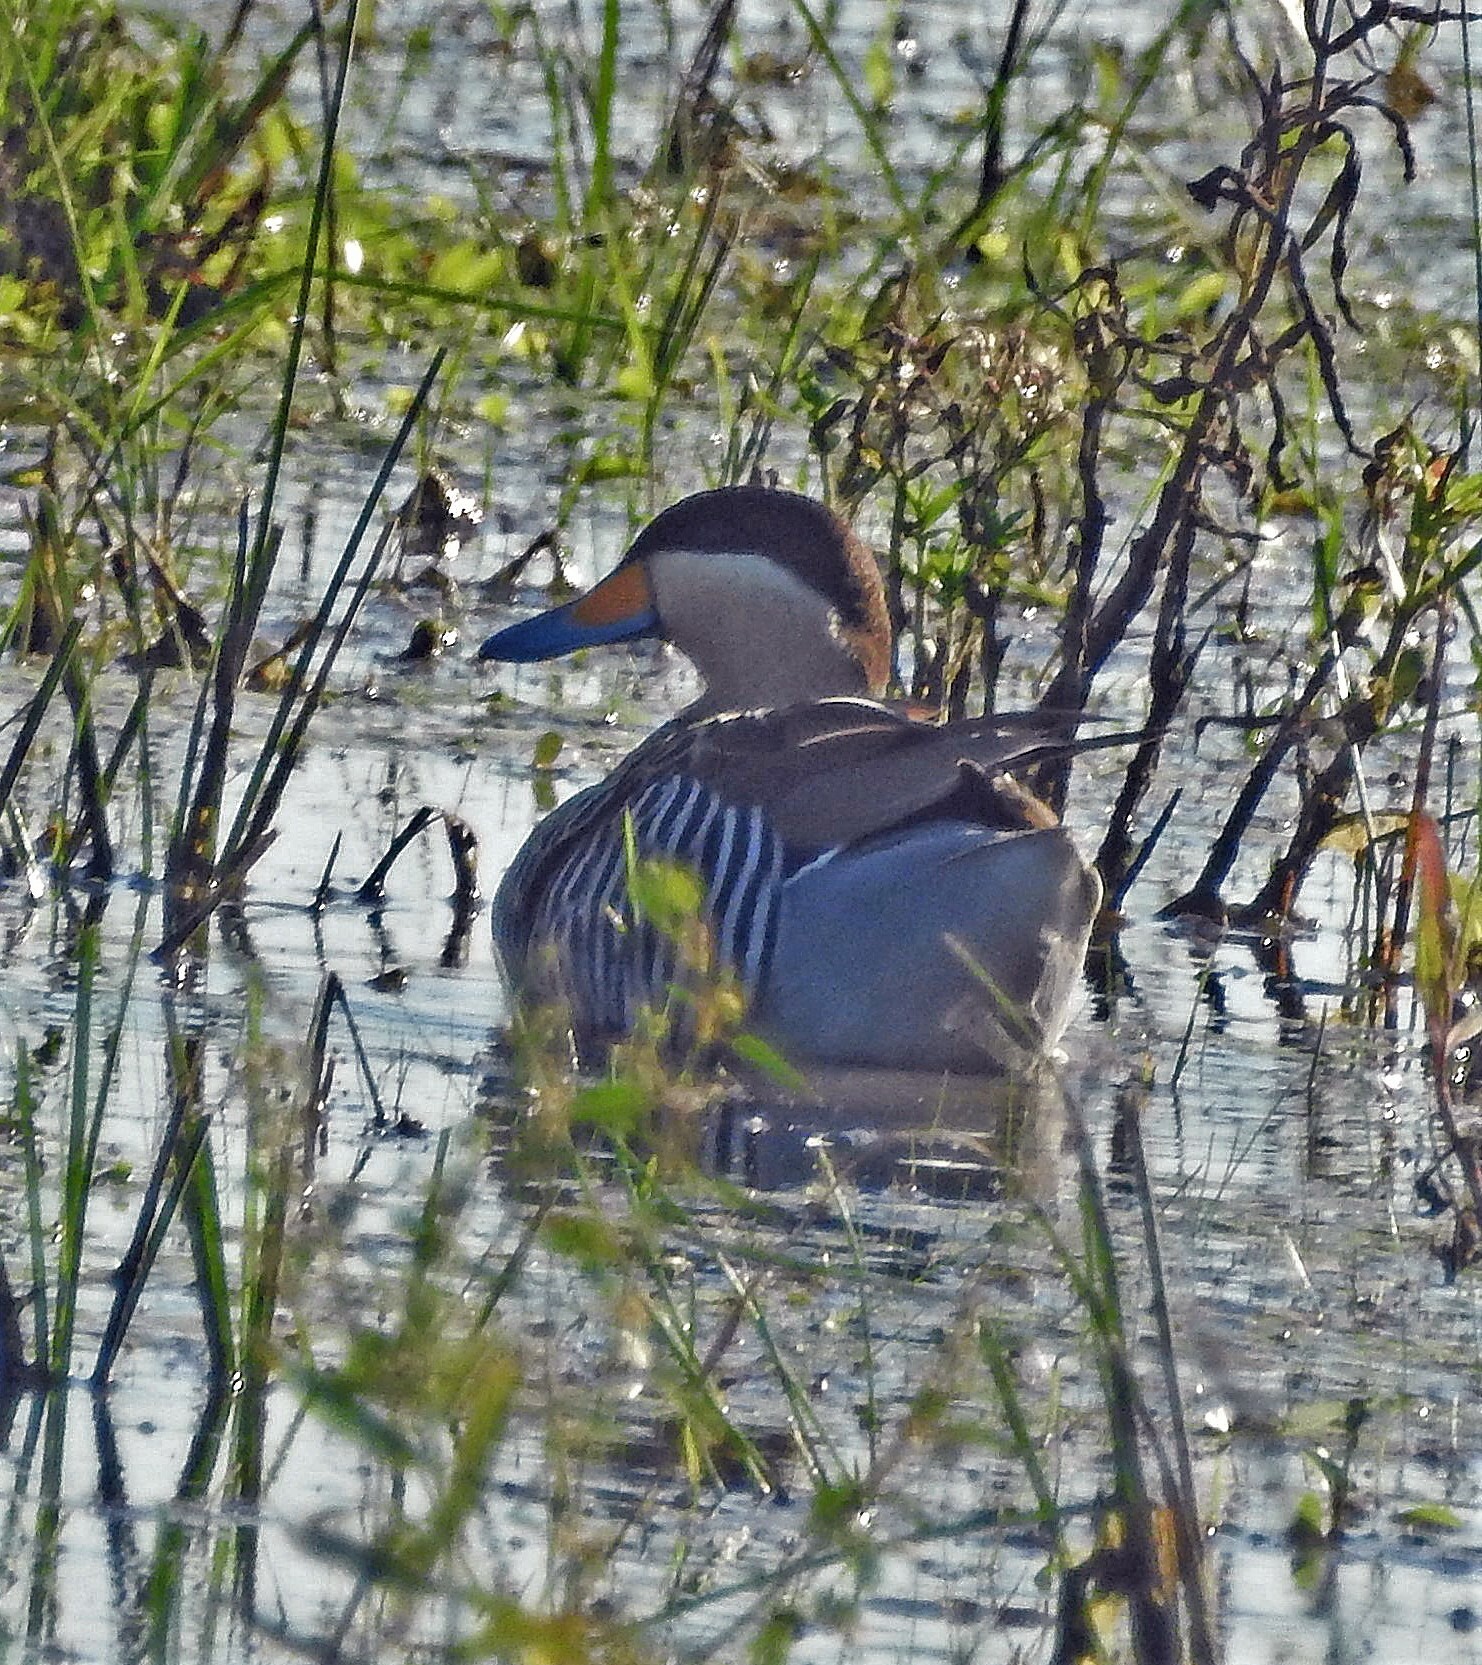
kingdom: Animalia
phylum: Chordata
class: Aves
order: Anseriformes
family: Anatidae
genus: Spatula
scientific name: Spatula versicolor
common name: Silver teal
